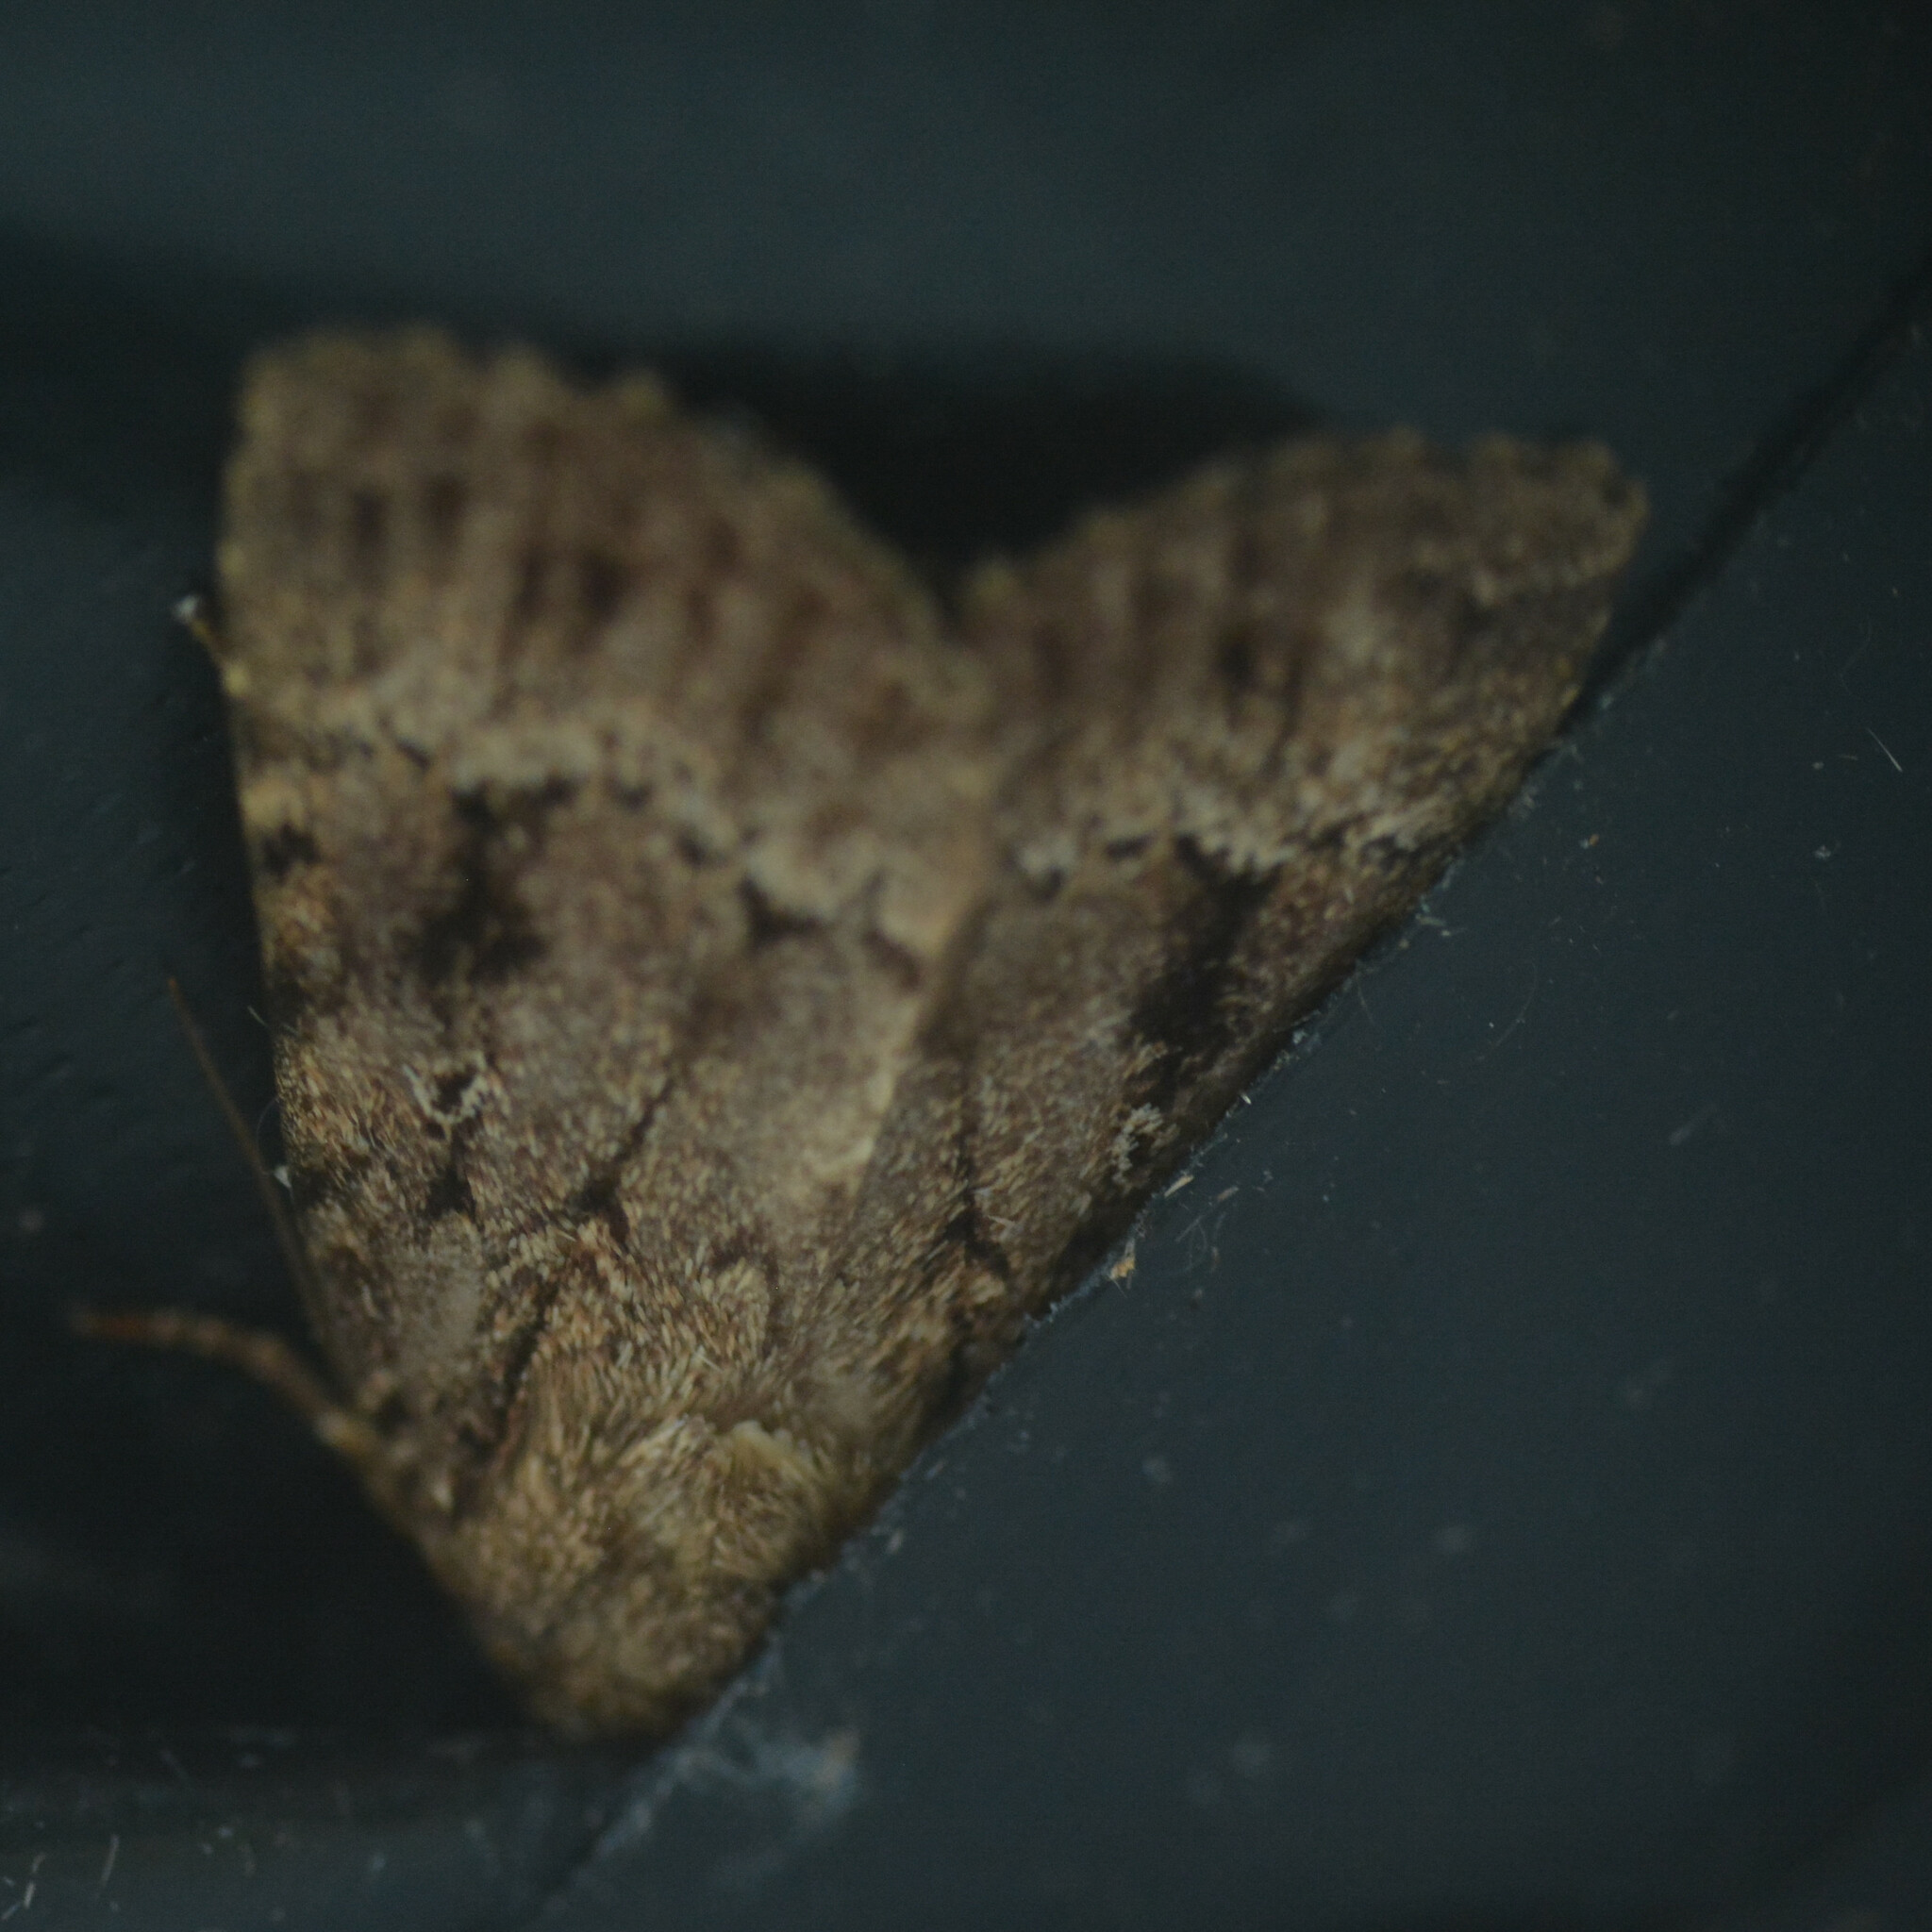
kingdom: Animalia
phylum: Arthropoda
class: Insecta
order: Lepidoptera
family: Noctuidae
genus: Amphipyra
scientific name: Amphipyra
